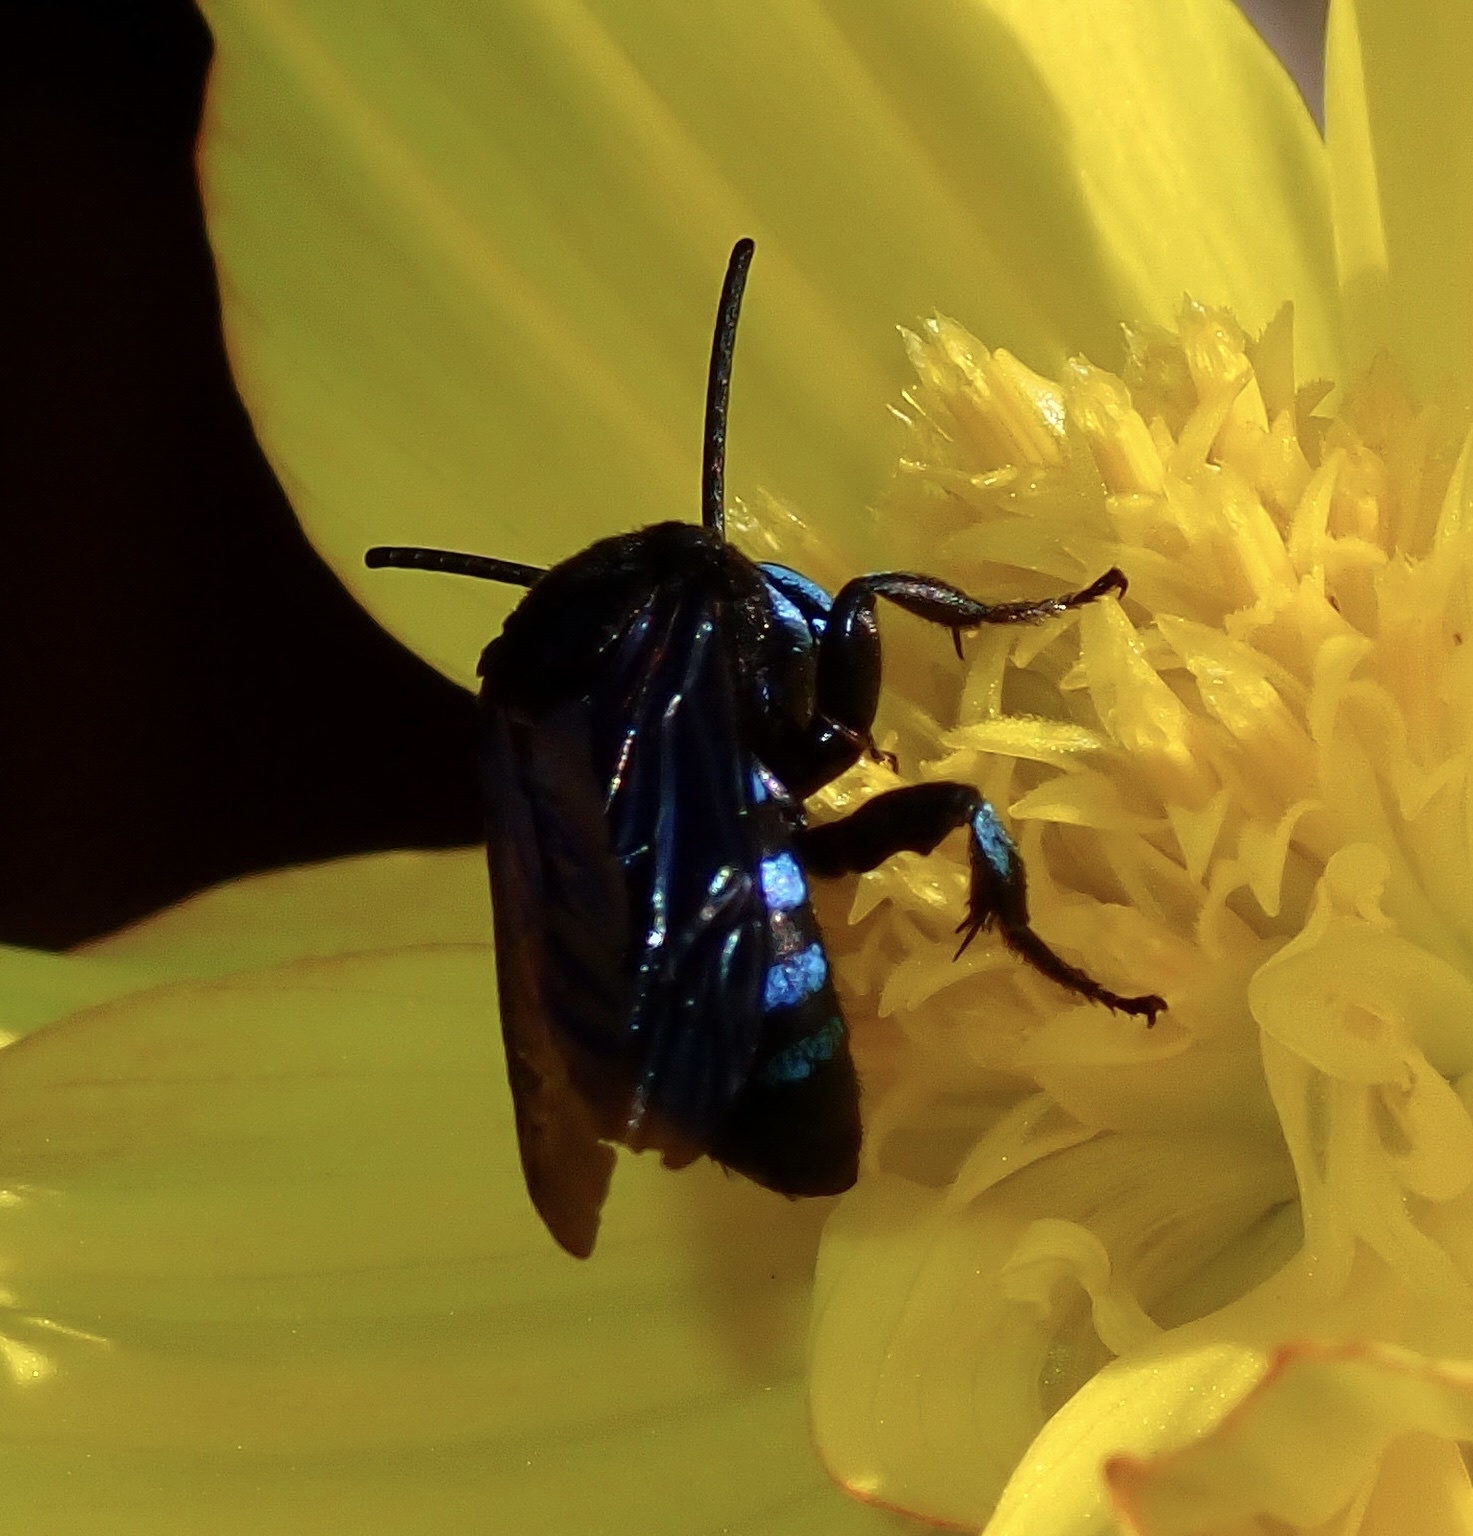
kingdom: Animalia
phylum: Arthropoda
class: Insecta
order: Hymenoptera
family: Apidae
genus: Thyreus
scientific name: Thyreus nitidulus
